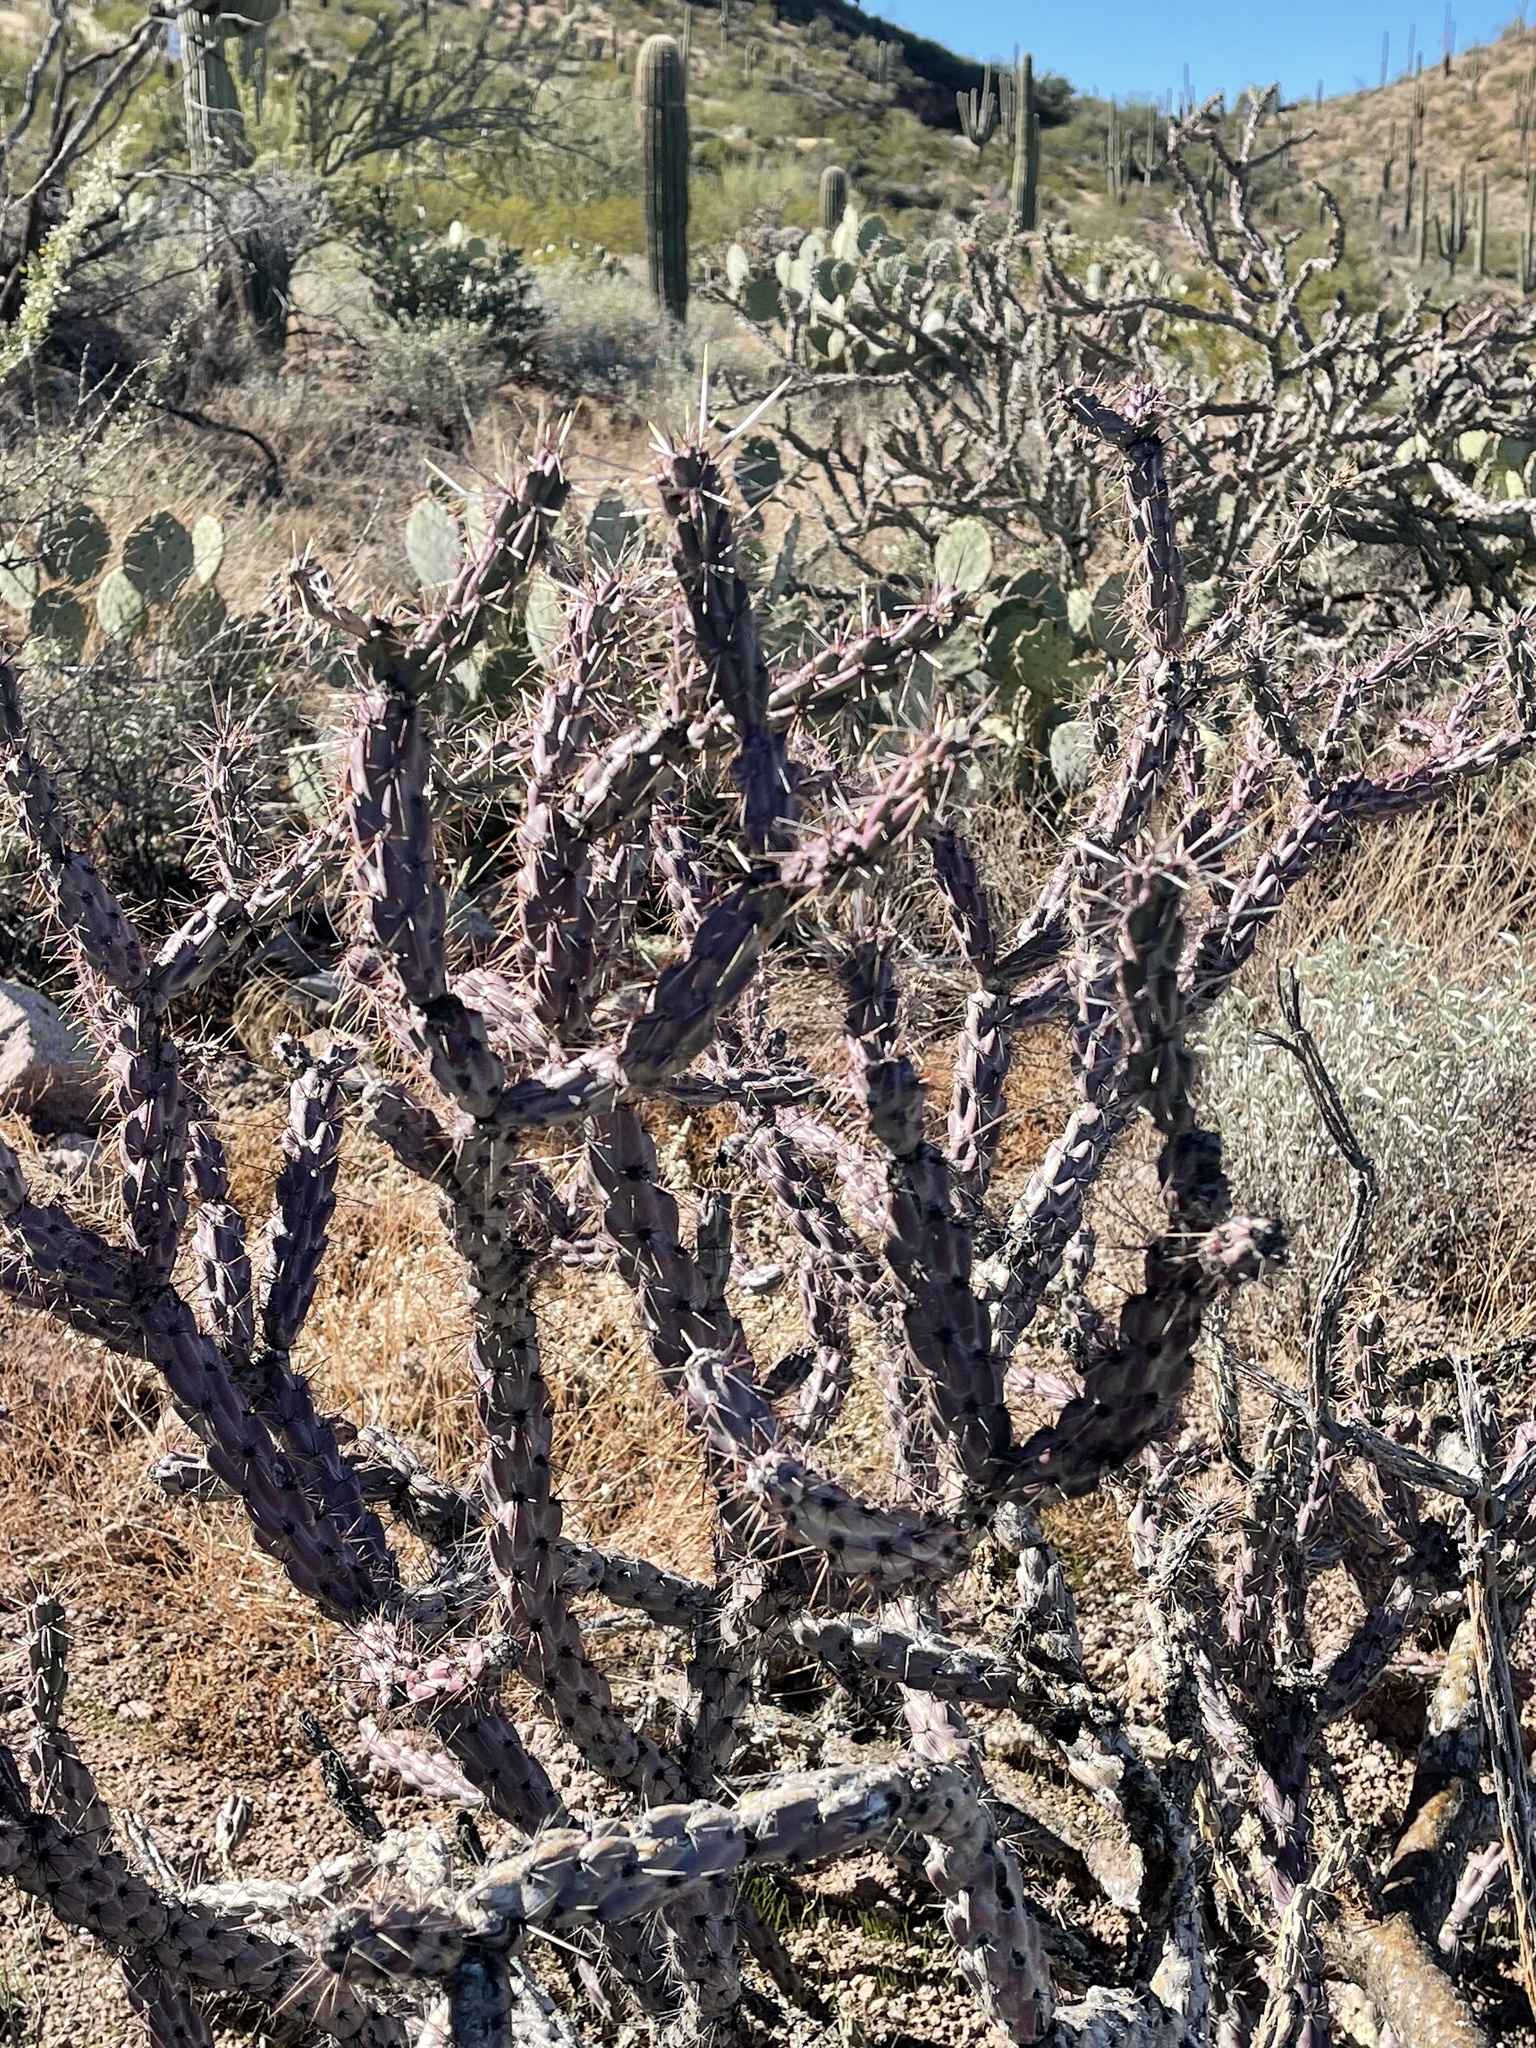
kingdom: Plantae
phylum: Tracheophyta
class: Magnoliopsida
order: Caryophyllales
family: Cactaceae
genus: Cylindropuntia
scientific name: Cylindropuntia thurberi
